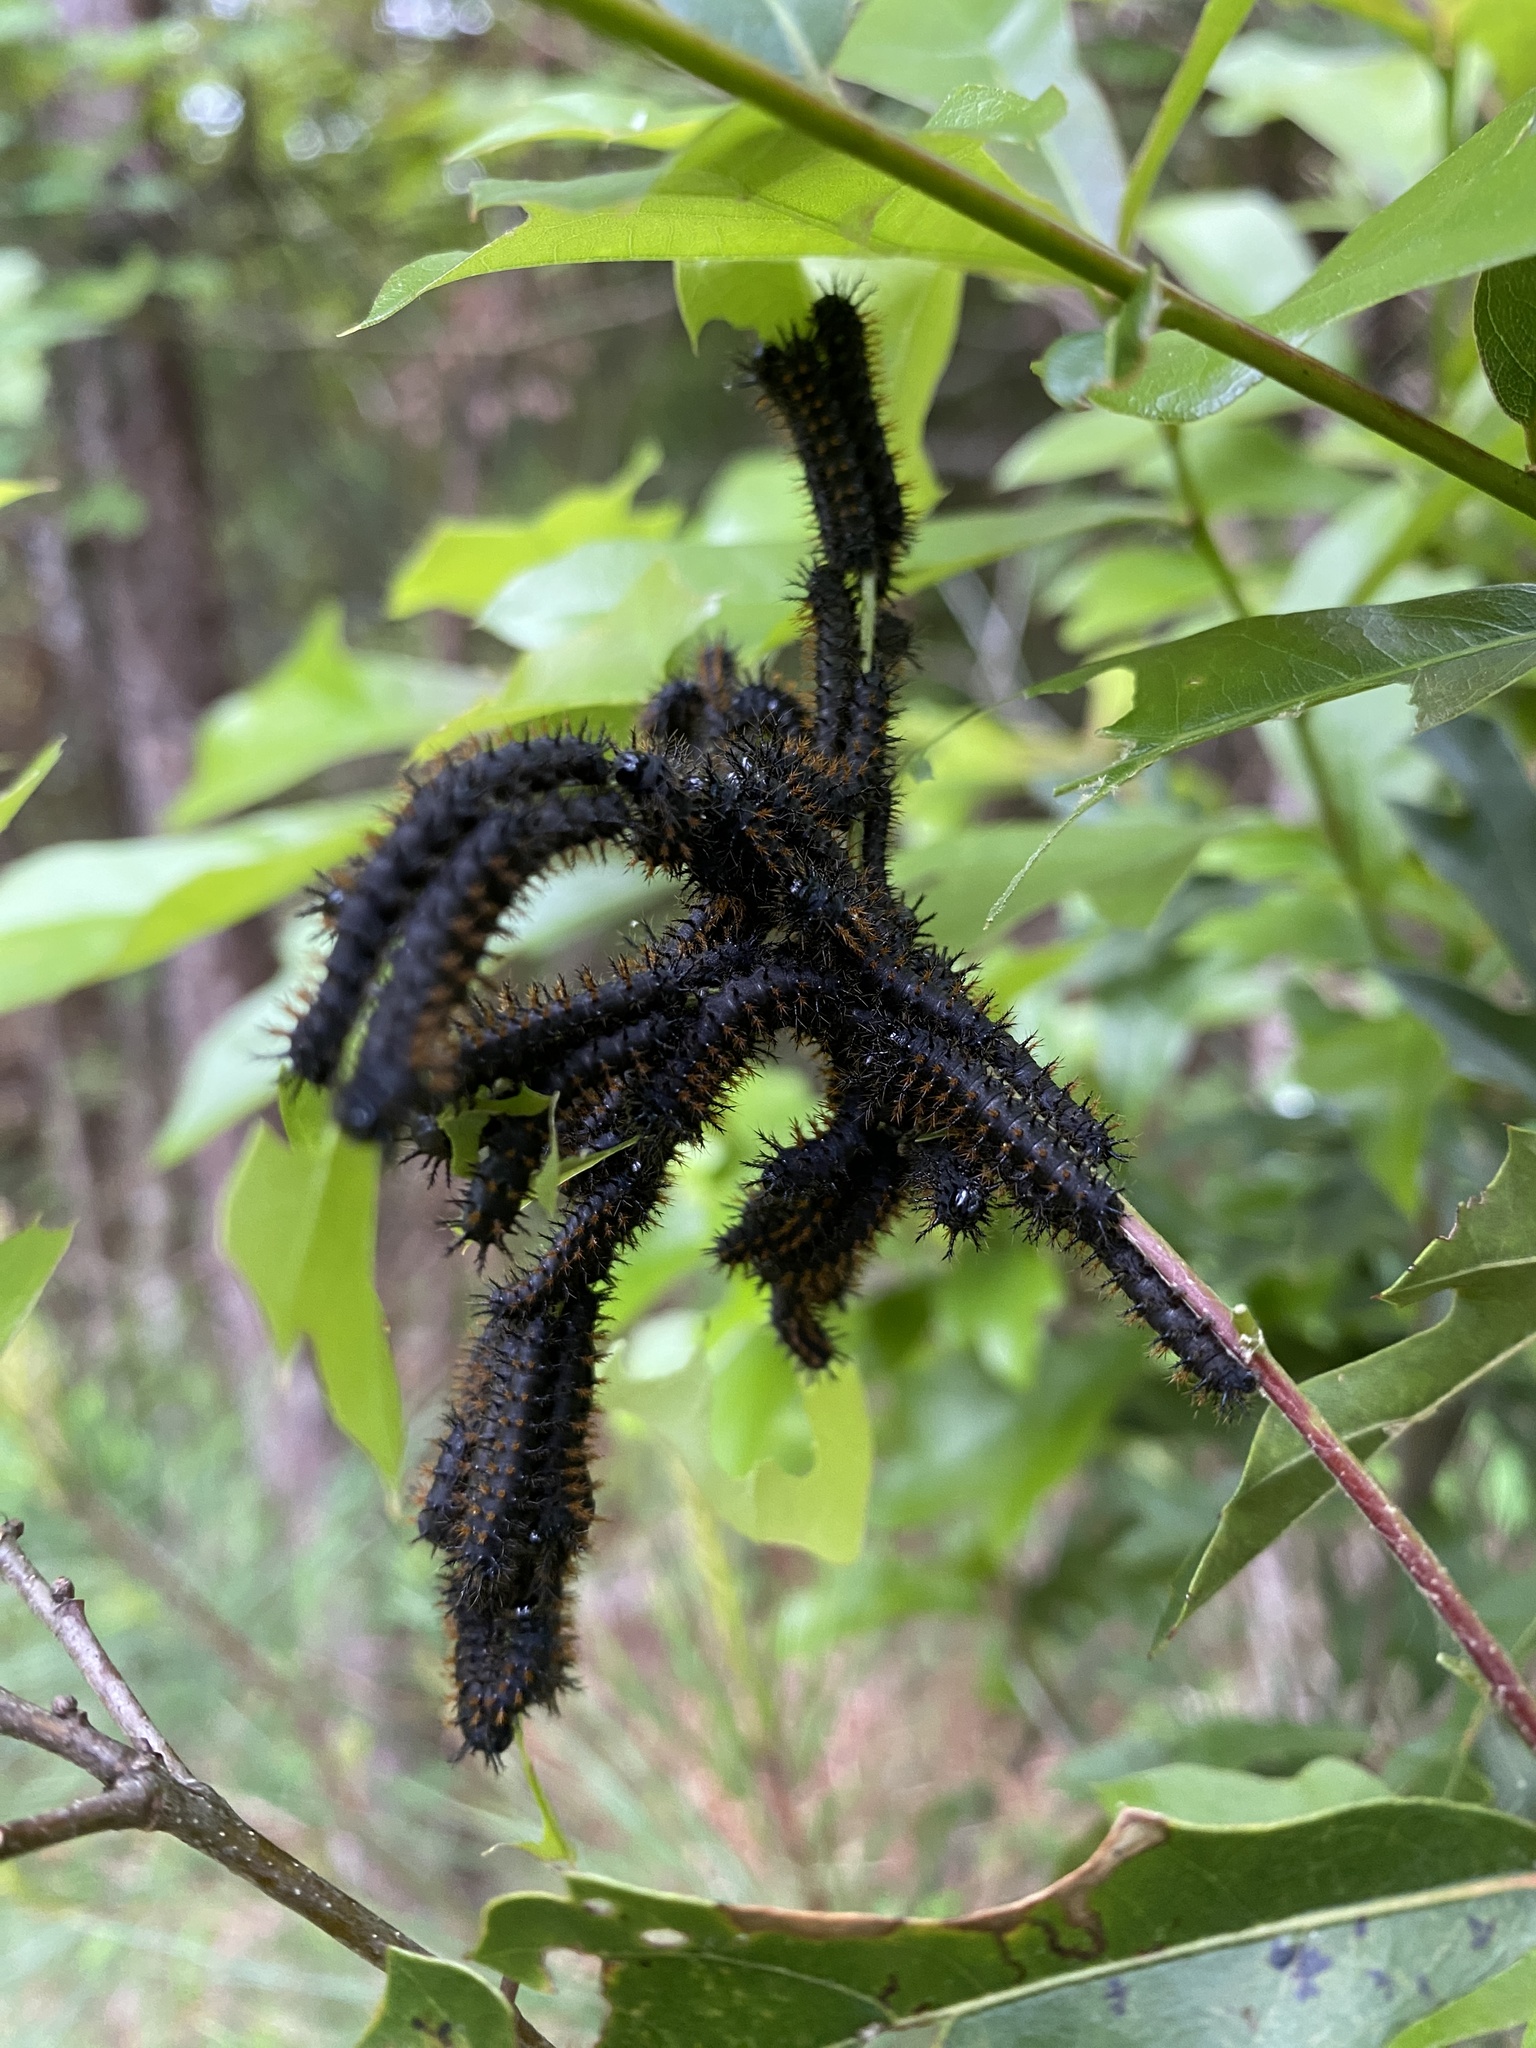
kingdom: Animalia
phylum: Arthropoda
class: Insecta
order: Lepidoptera
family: Saturniidae
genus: Hemileuca
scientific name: Hemileuca maia
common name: Eastern buckmoth
